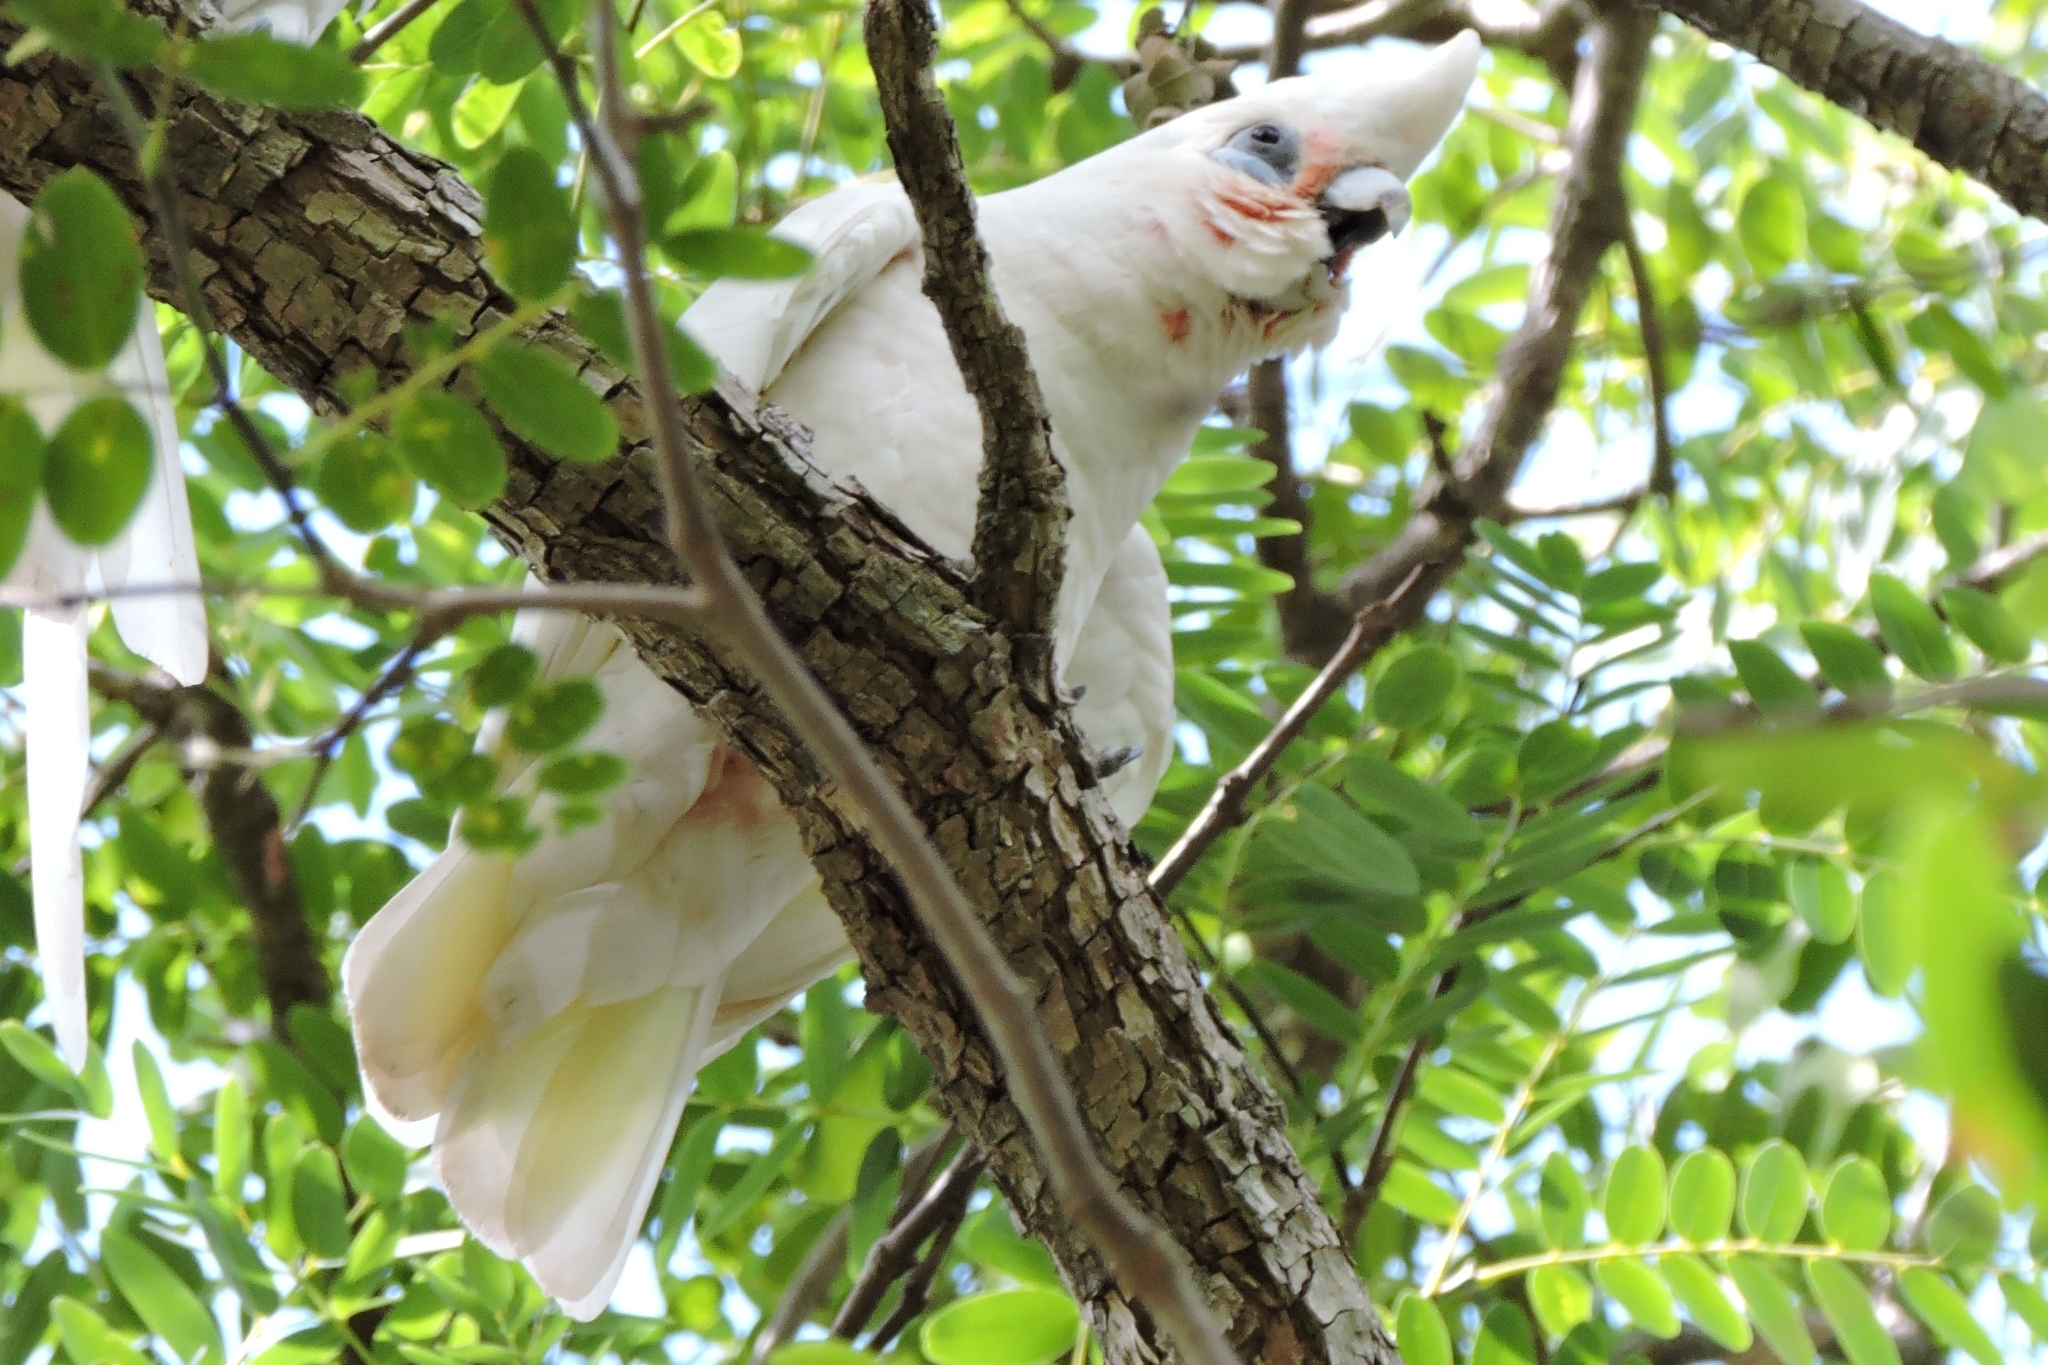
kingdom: Animalia
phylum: Chordata
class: Aves
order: Psittaciformes
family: Psittacidae
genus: Cacatua
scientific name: Cacatua sanguinea
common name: Little corella
